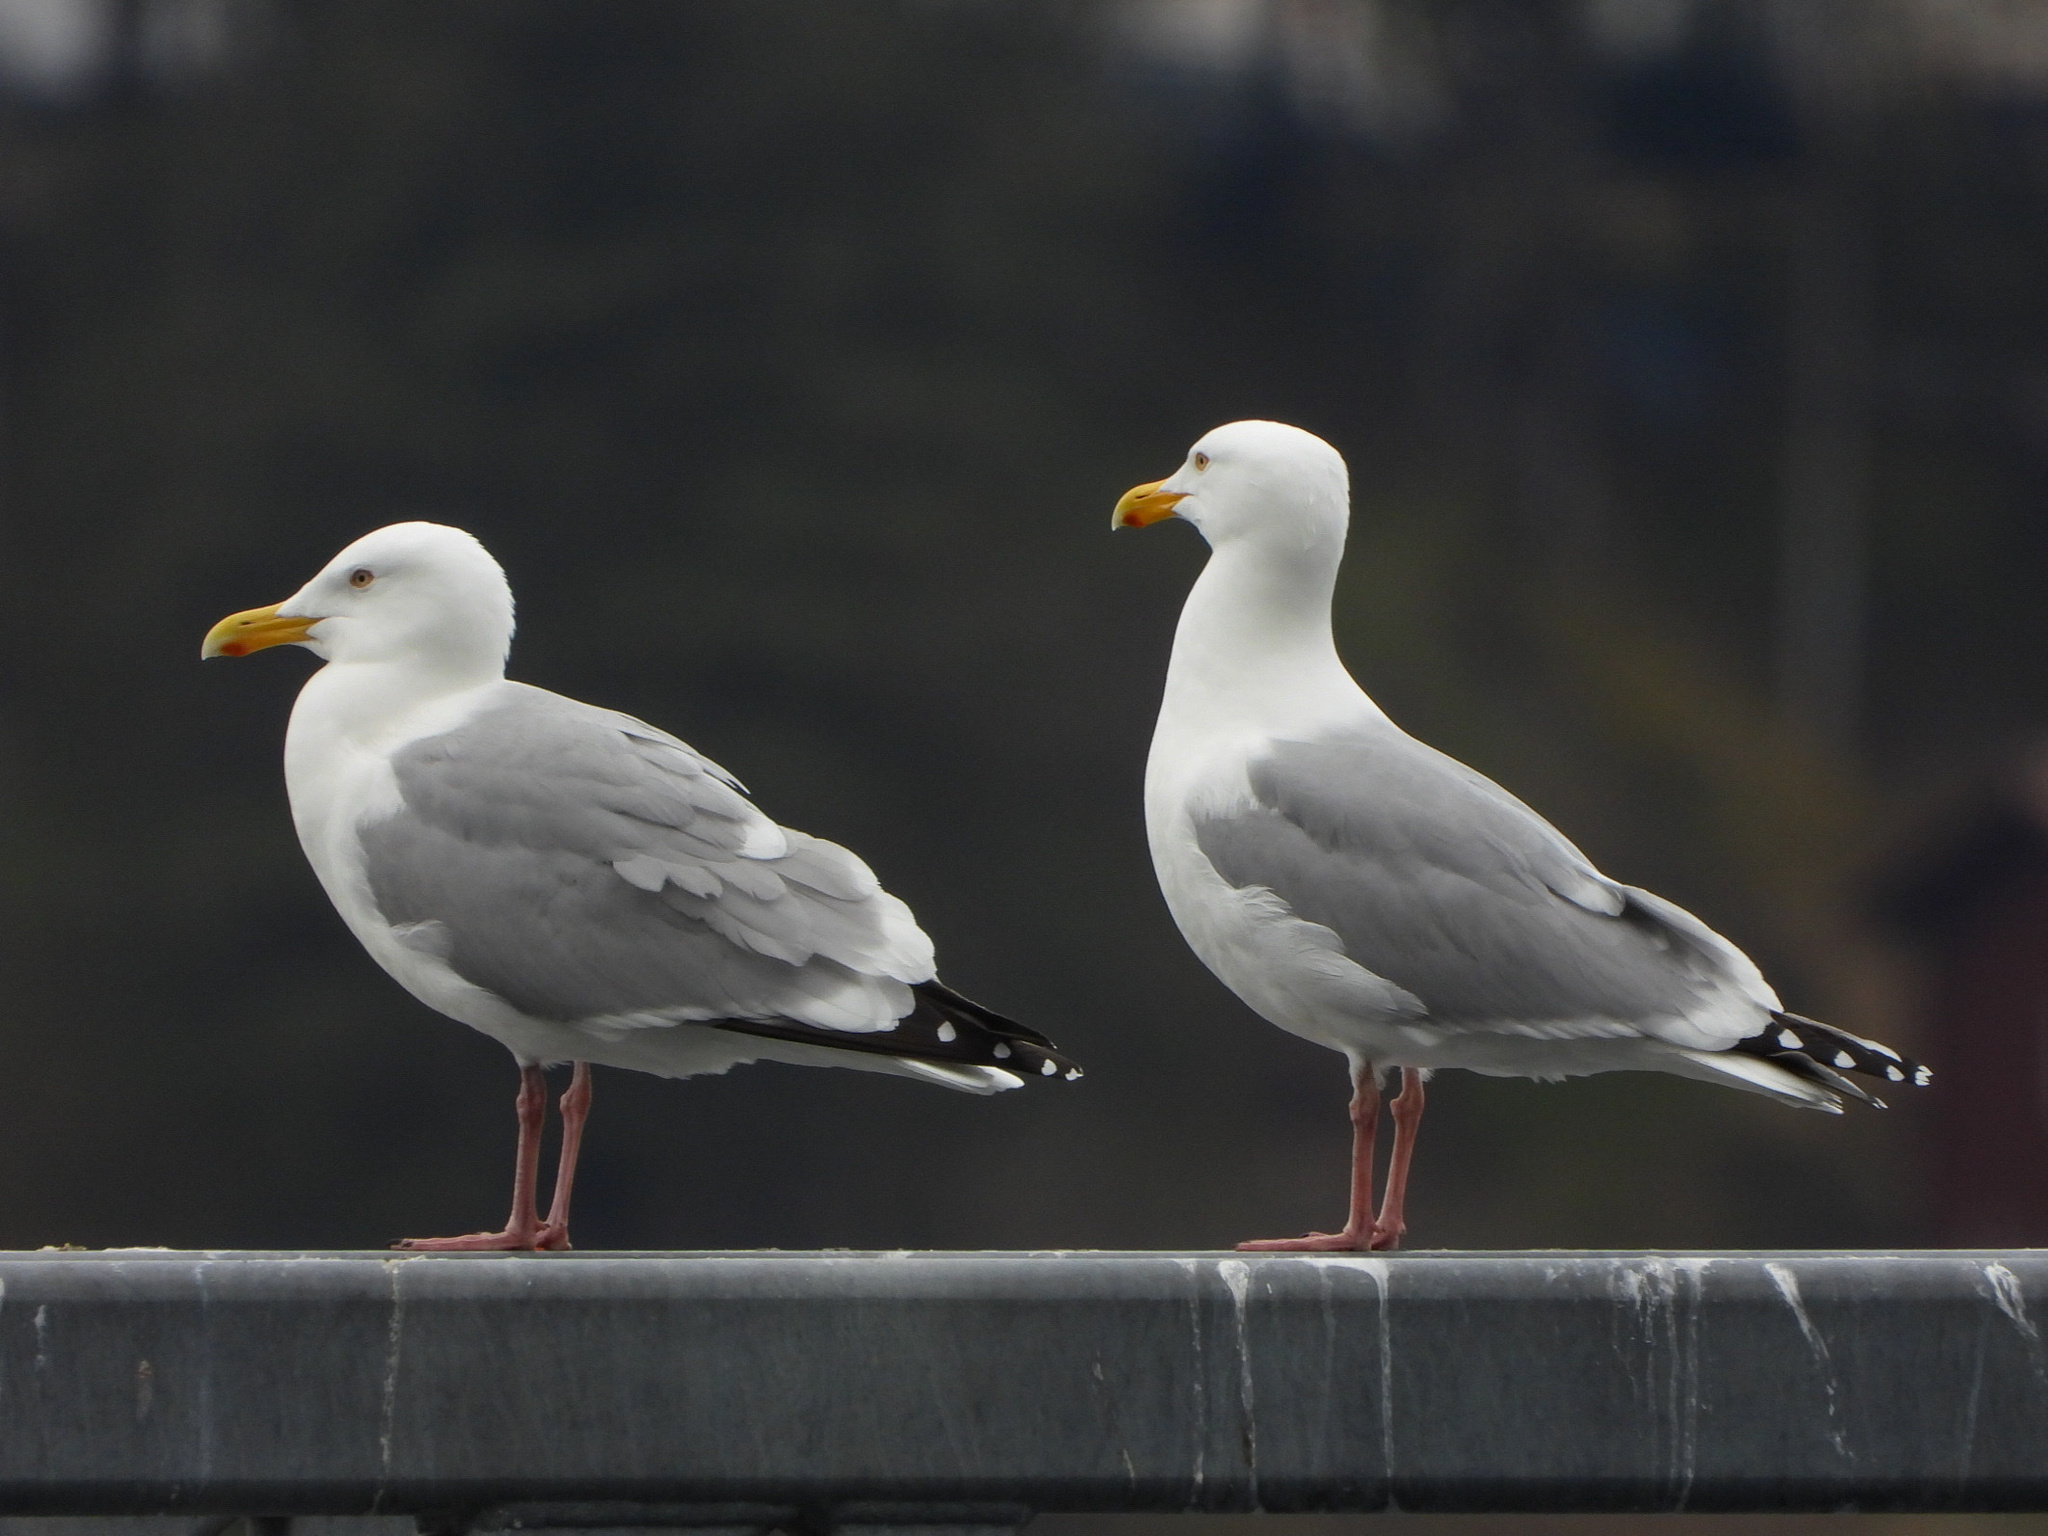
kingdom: Animalia
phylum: Chordata
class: Aves
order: Charadriiformes
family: Laridae
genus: Larus
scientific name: Larus smithsonianus
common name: American herring gull
